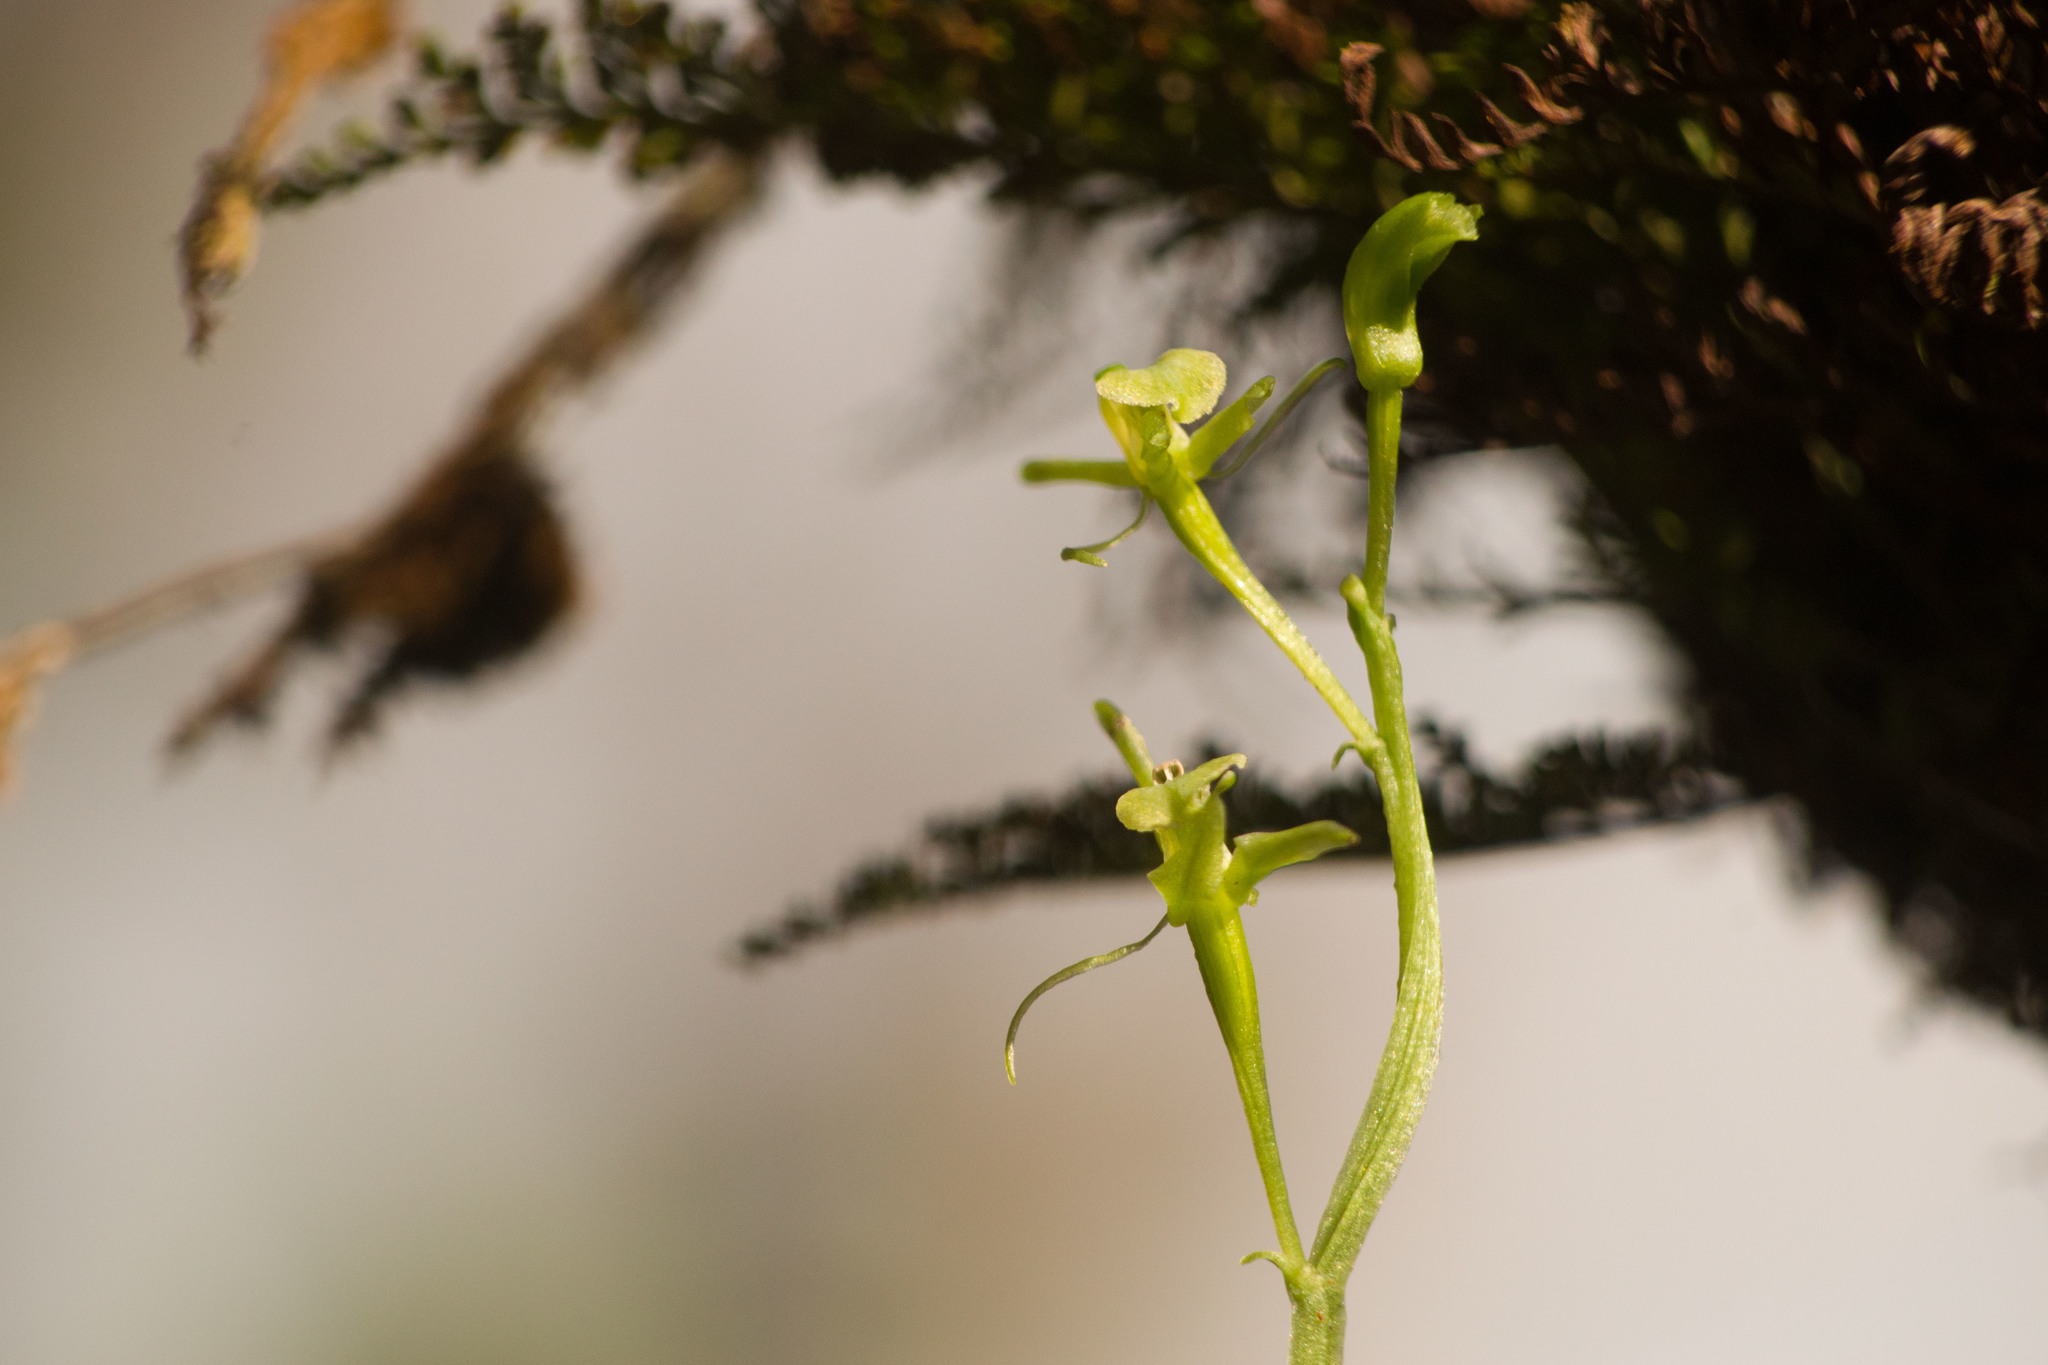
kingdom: Plantae
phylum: Tracheophyta
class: Liliopsida
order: Asparagales
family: Orchidaceae
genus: Liparis
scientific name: Liparis hawaiensis
